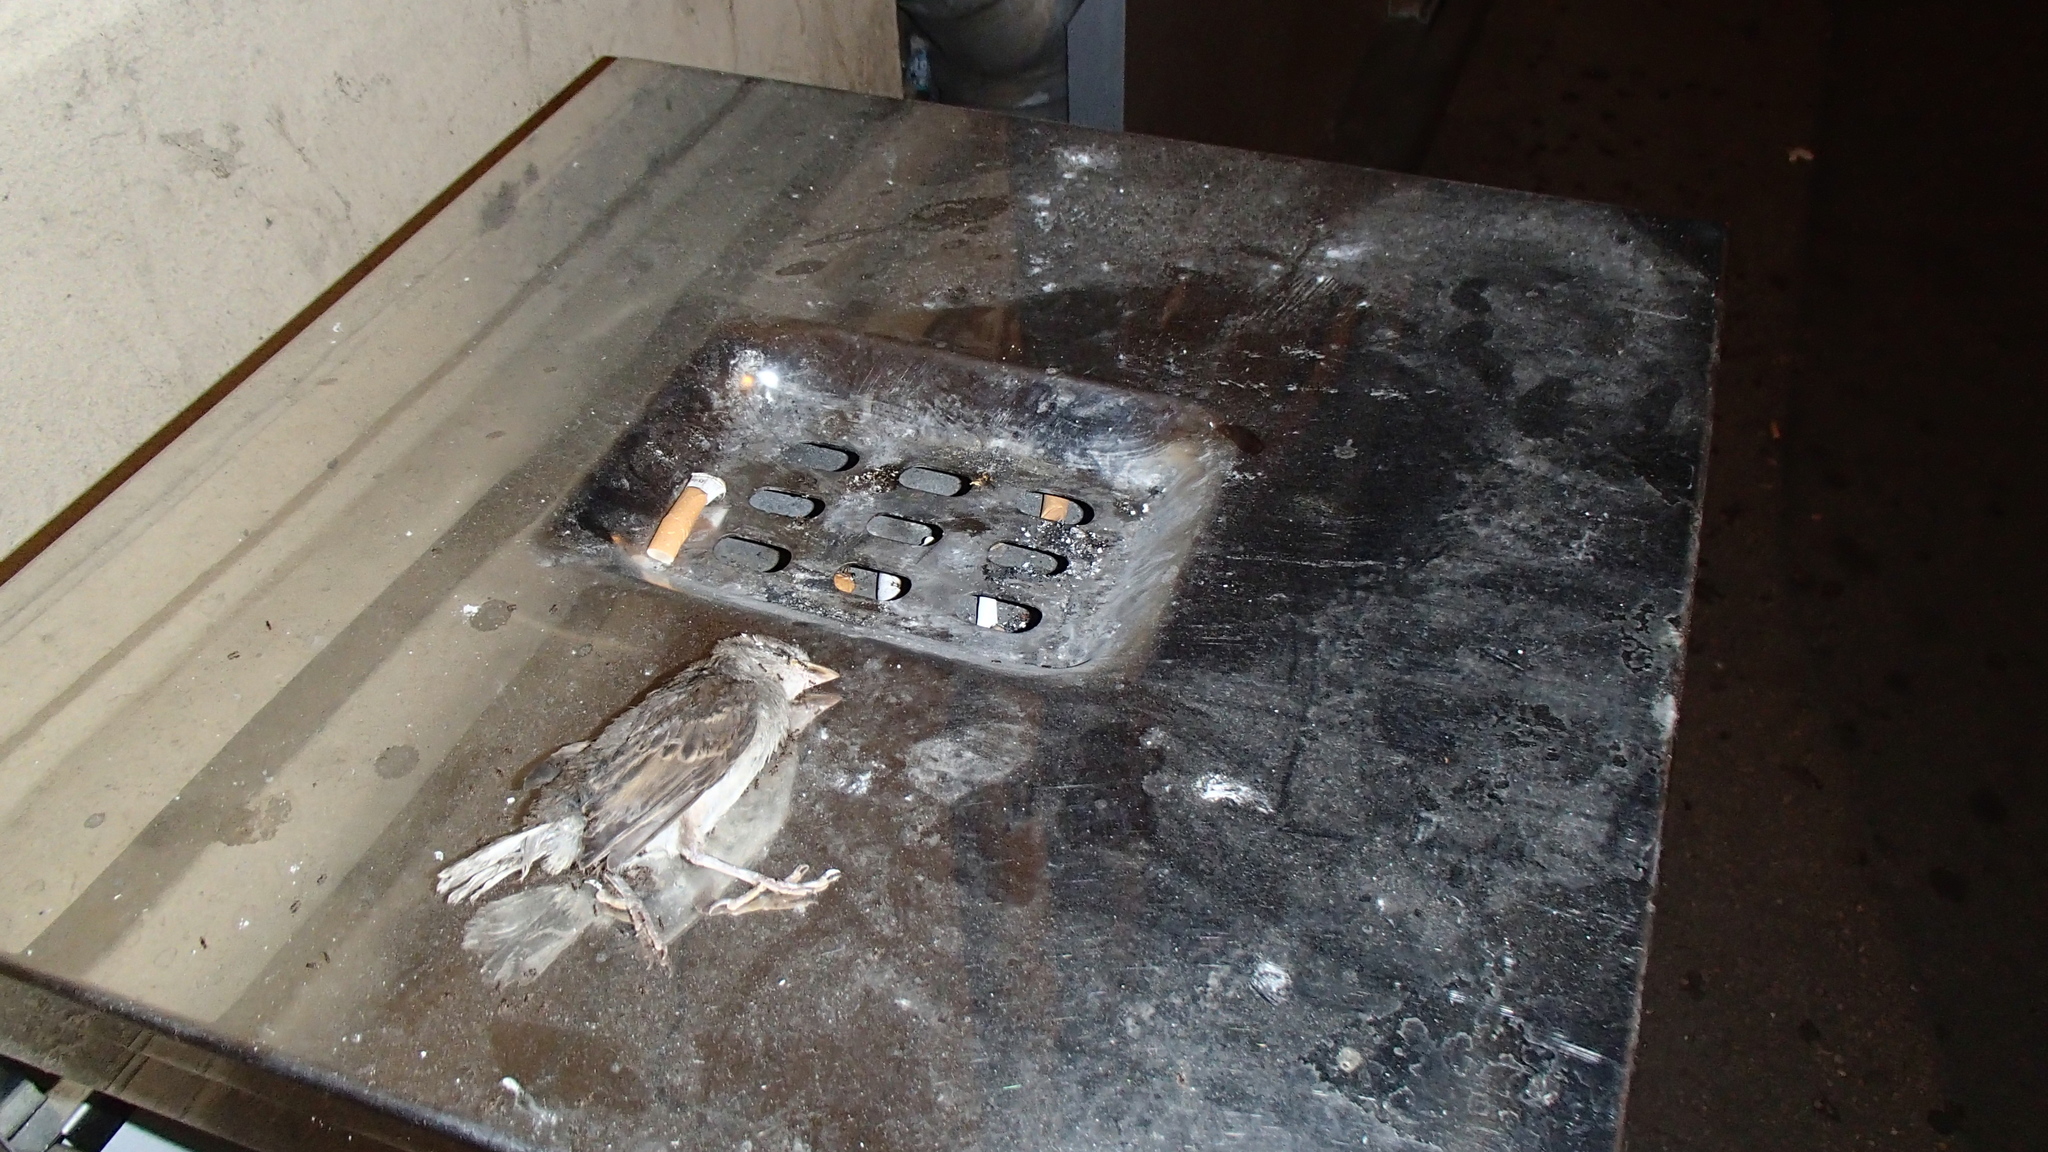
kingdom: Animalia
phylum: Chordata
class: Aves
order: Passeriformes
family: Passeridae
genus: Passer
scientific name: Passer domesticus
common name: House sparrow
